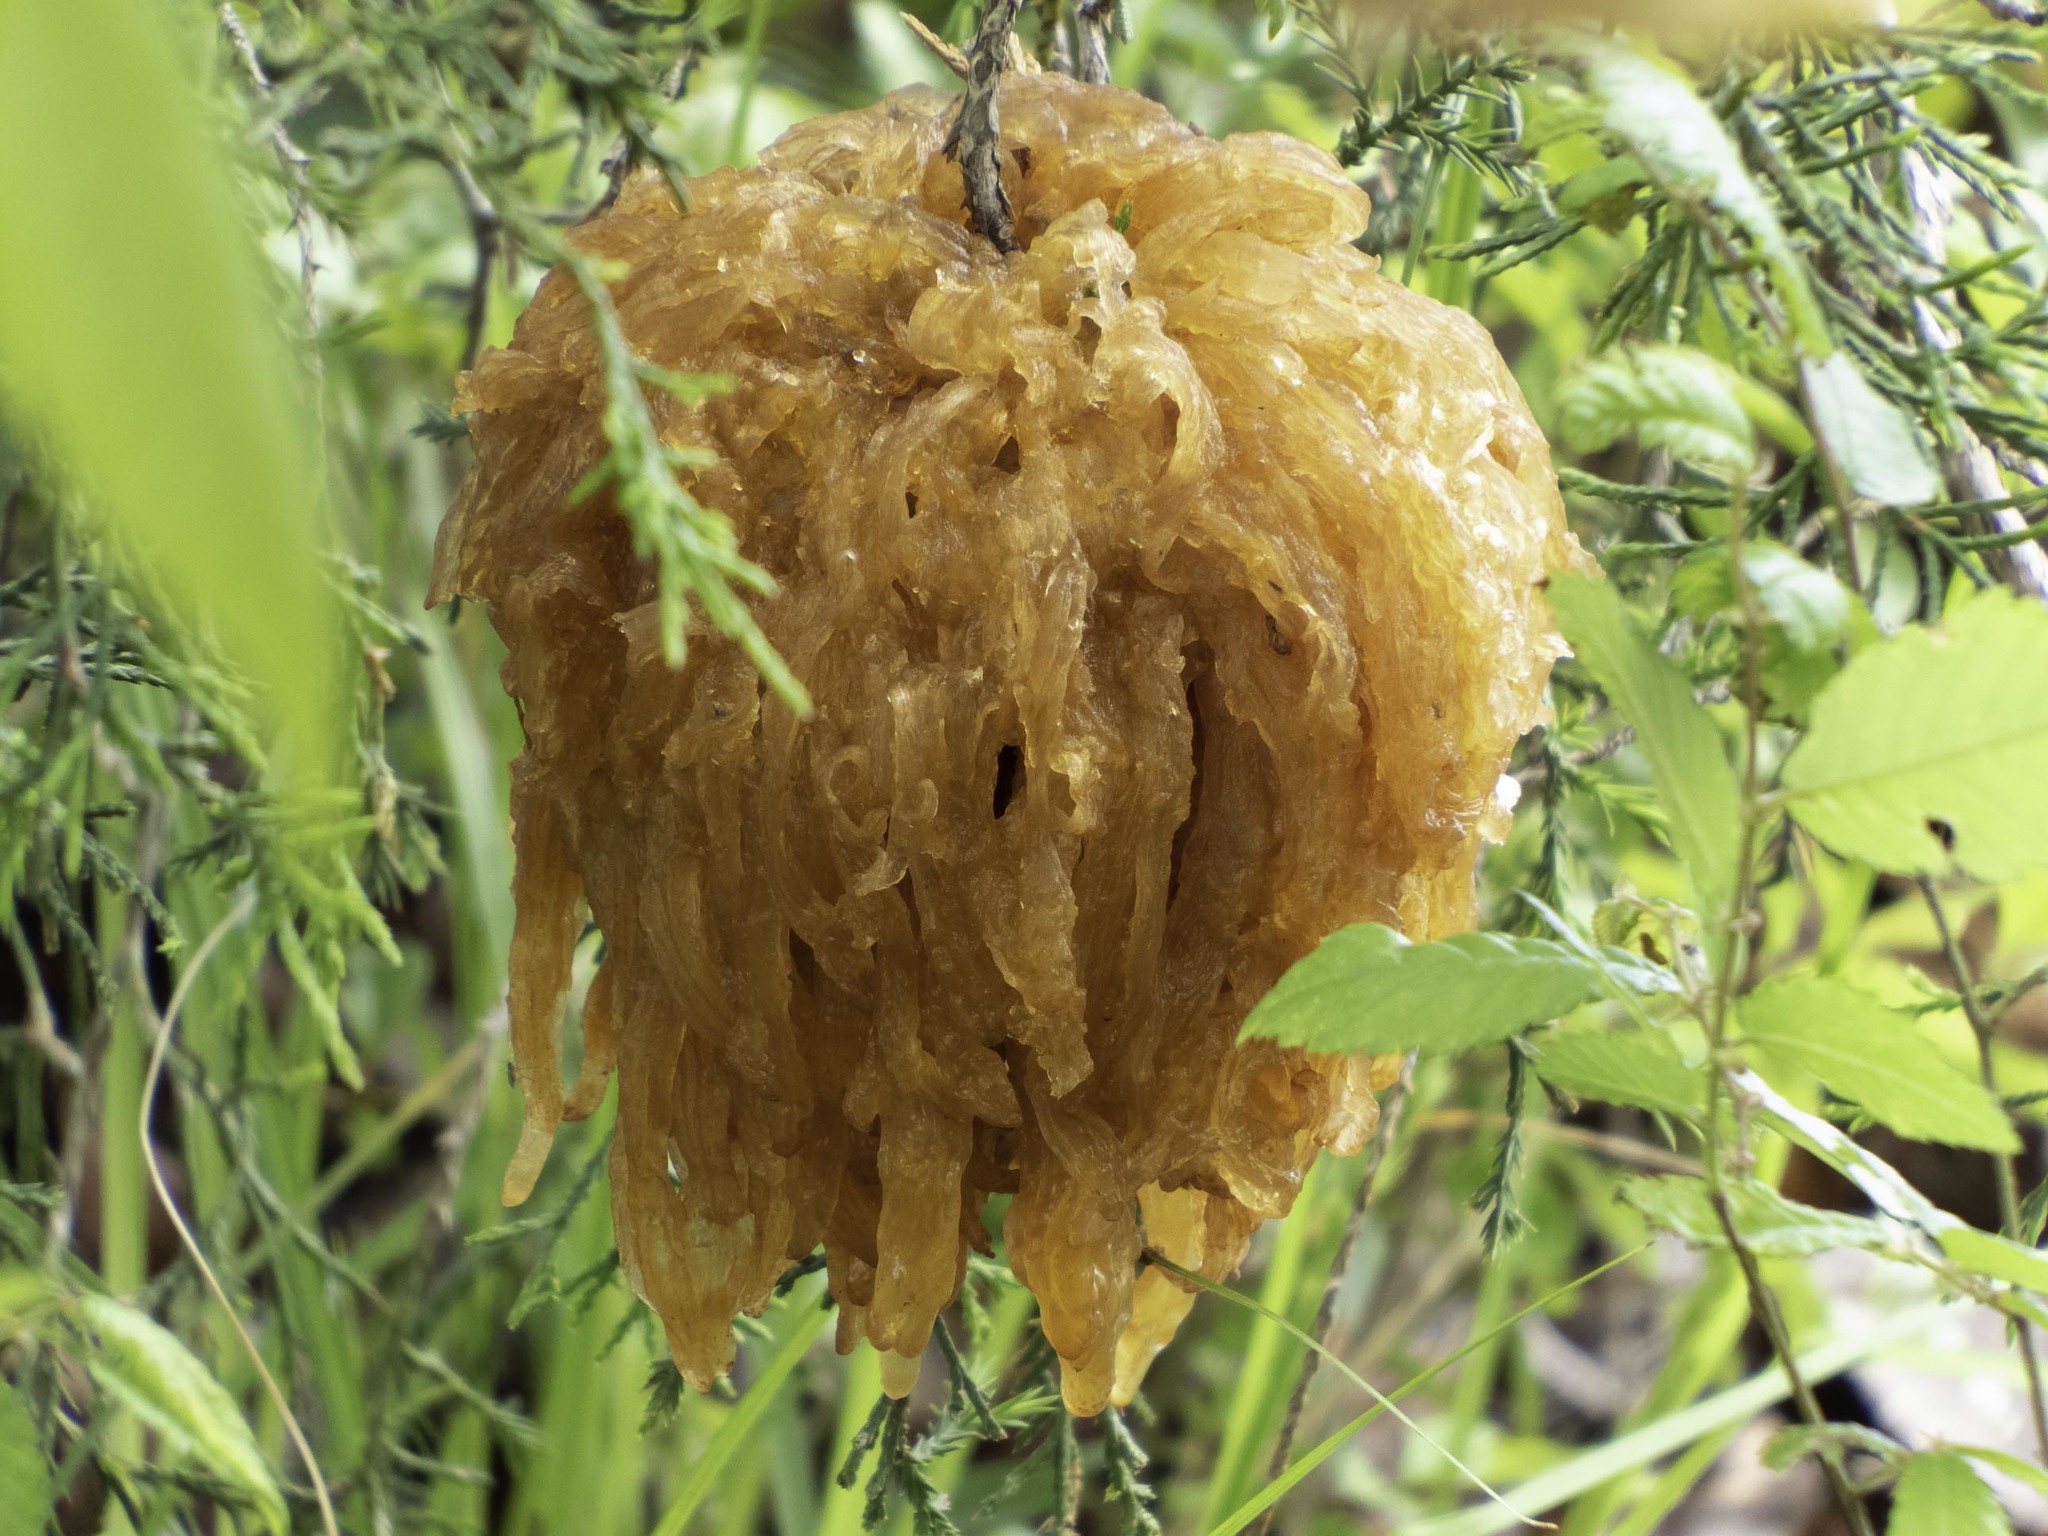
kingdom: Fungi
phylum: Basidiomycota
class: Pucciniomycetes
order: Pucciniales
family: Gymnosporangiaceae
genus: Gymnosporangium
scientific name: Gymnosporangium juniperi-virginianae
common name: Juniper-apple rust
